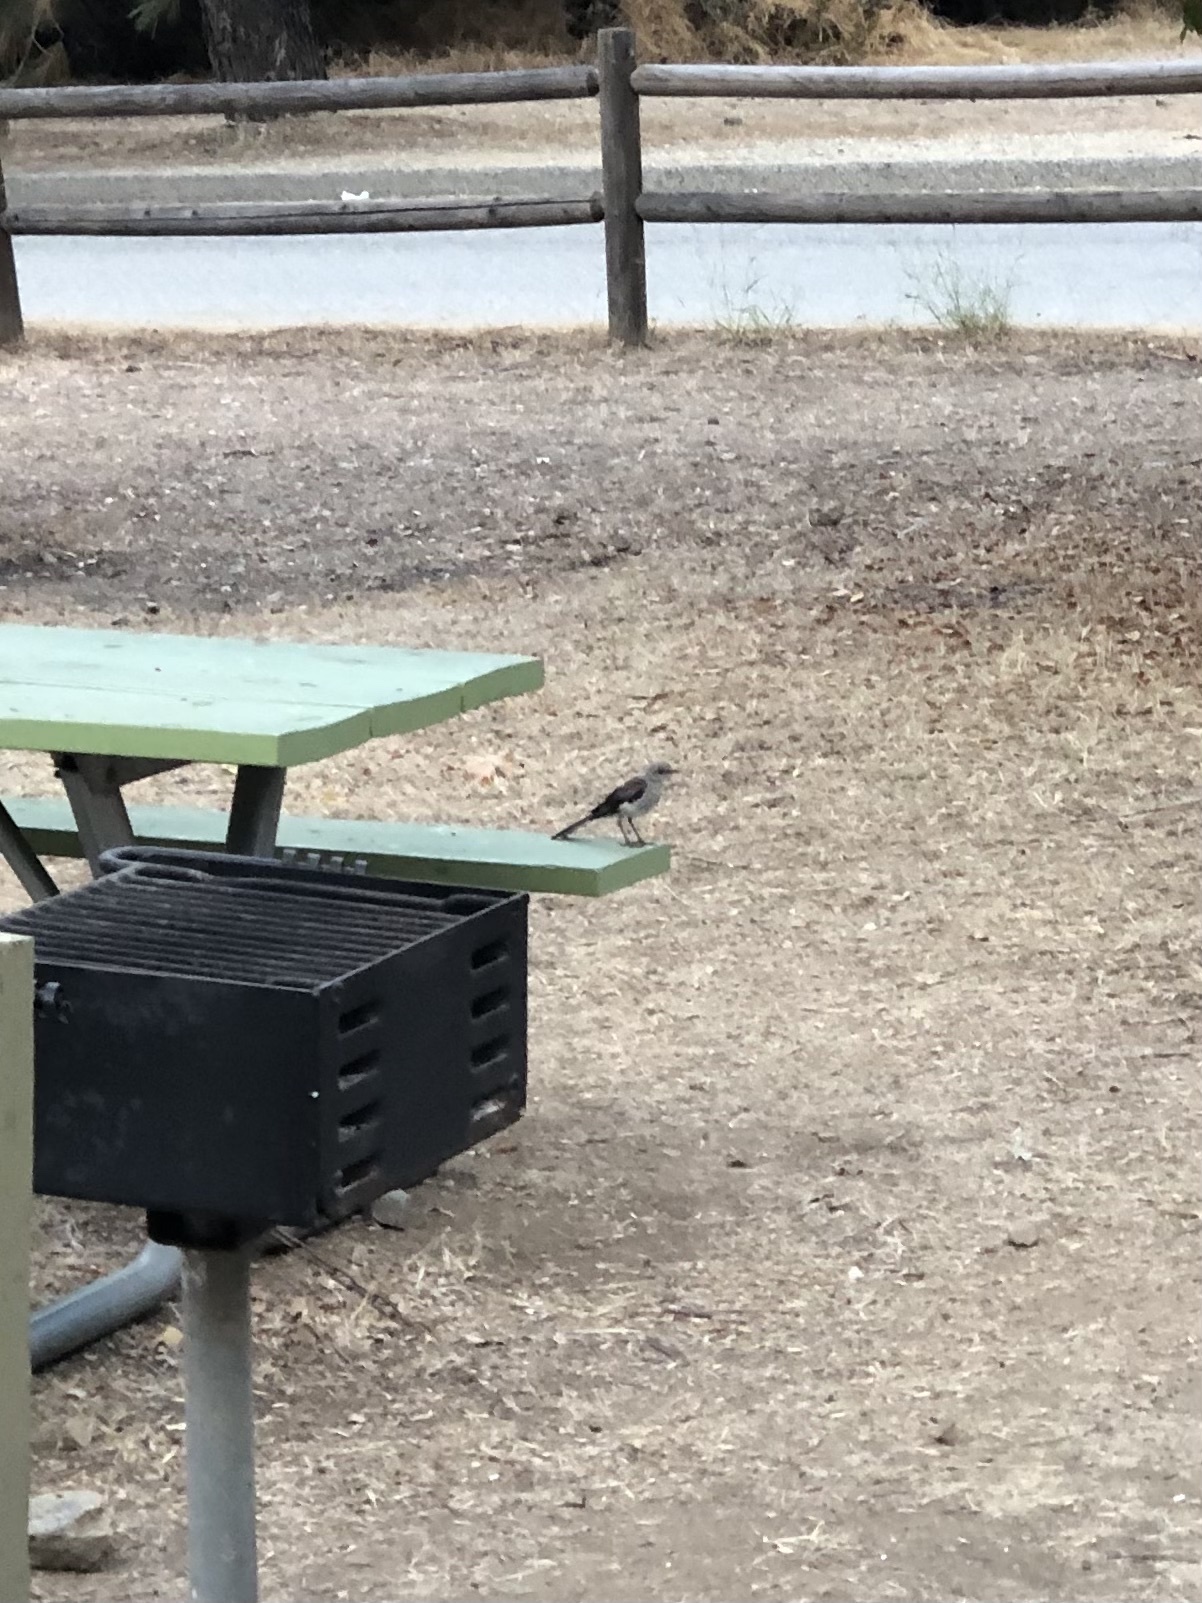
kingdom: Animalia
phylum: Chordata
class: Aves
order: Passeriformes
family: Mimidae
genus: Mimus
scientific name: Mimus polyglottos
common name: Northern mockingbird
